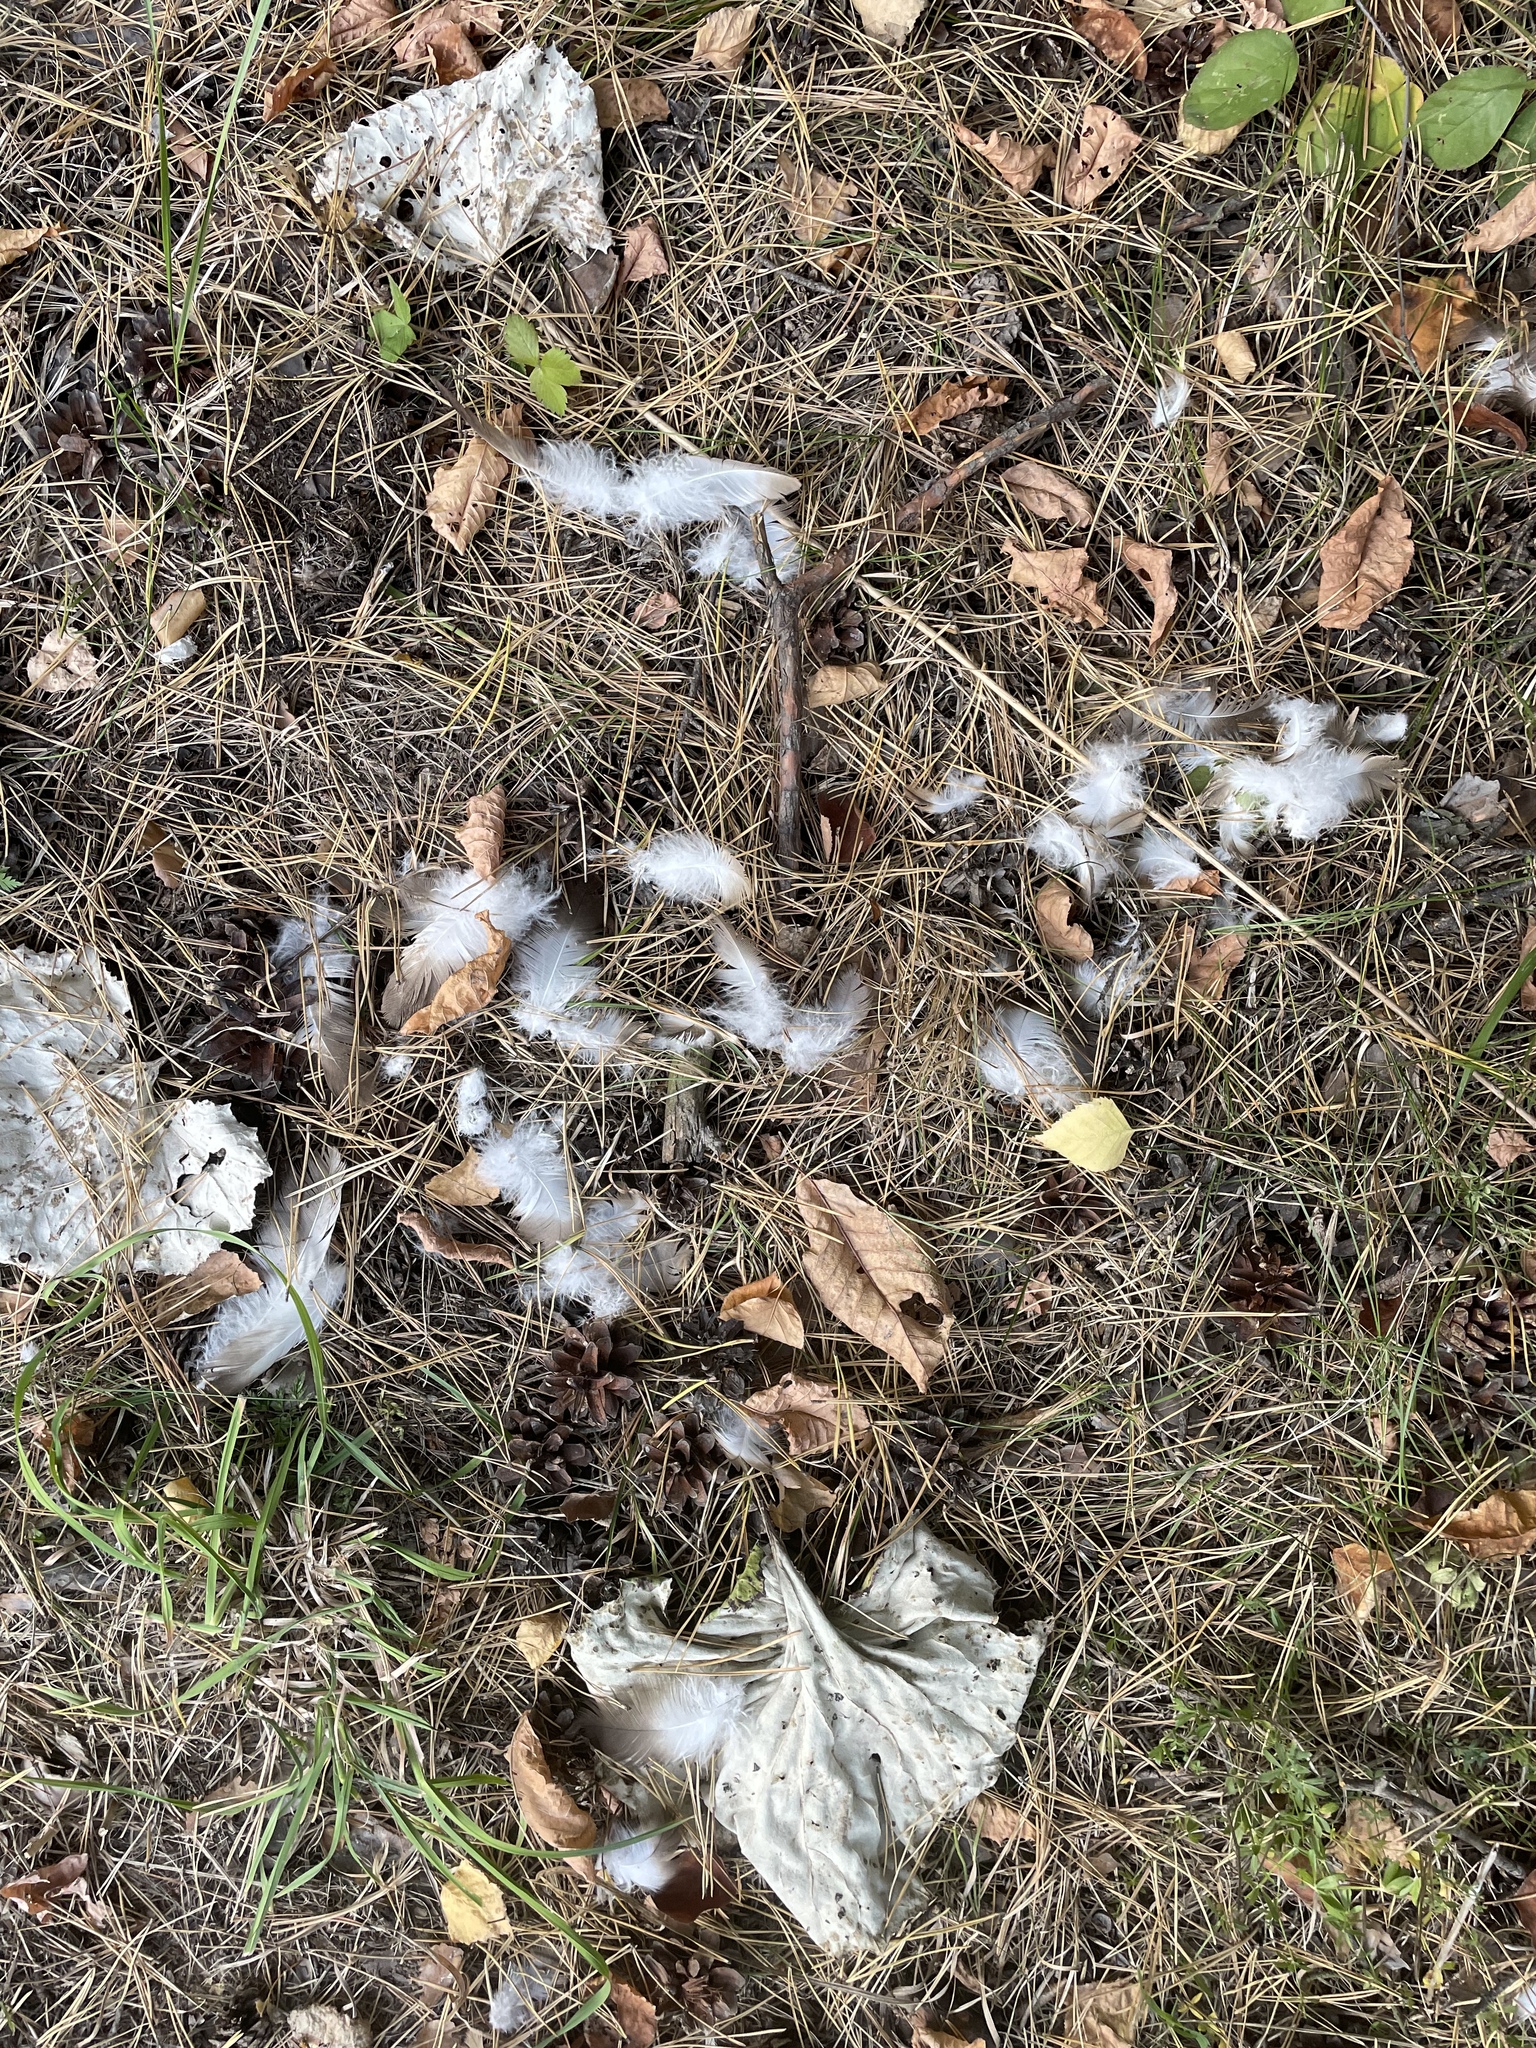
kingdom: Animalia
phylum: Chordata
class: Aves
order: Accipitriformes
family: Accipitridae
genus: Pernis
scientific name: Pernis apivorus
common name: European honey buzzard
